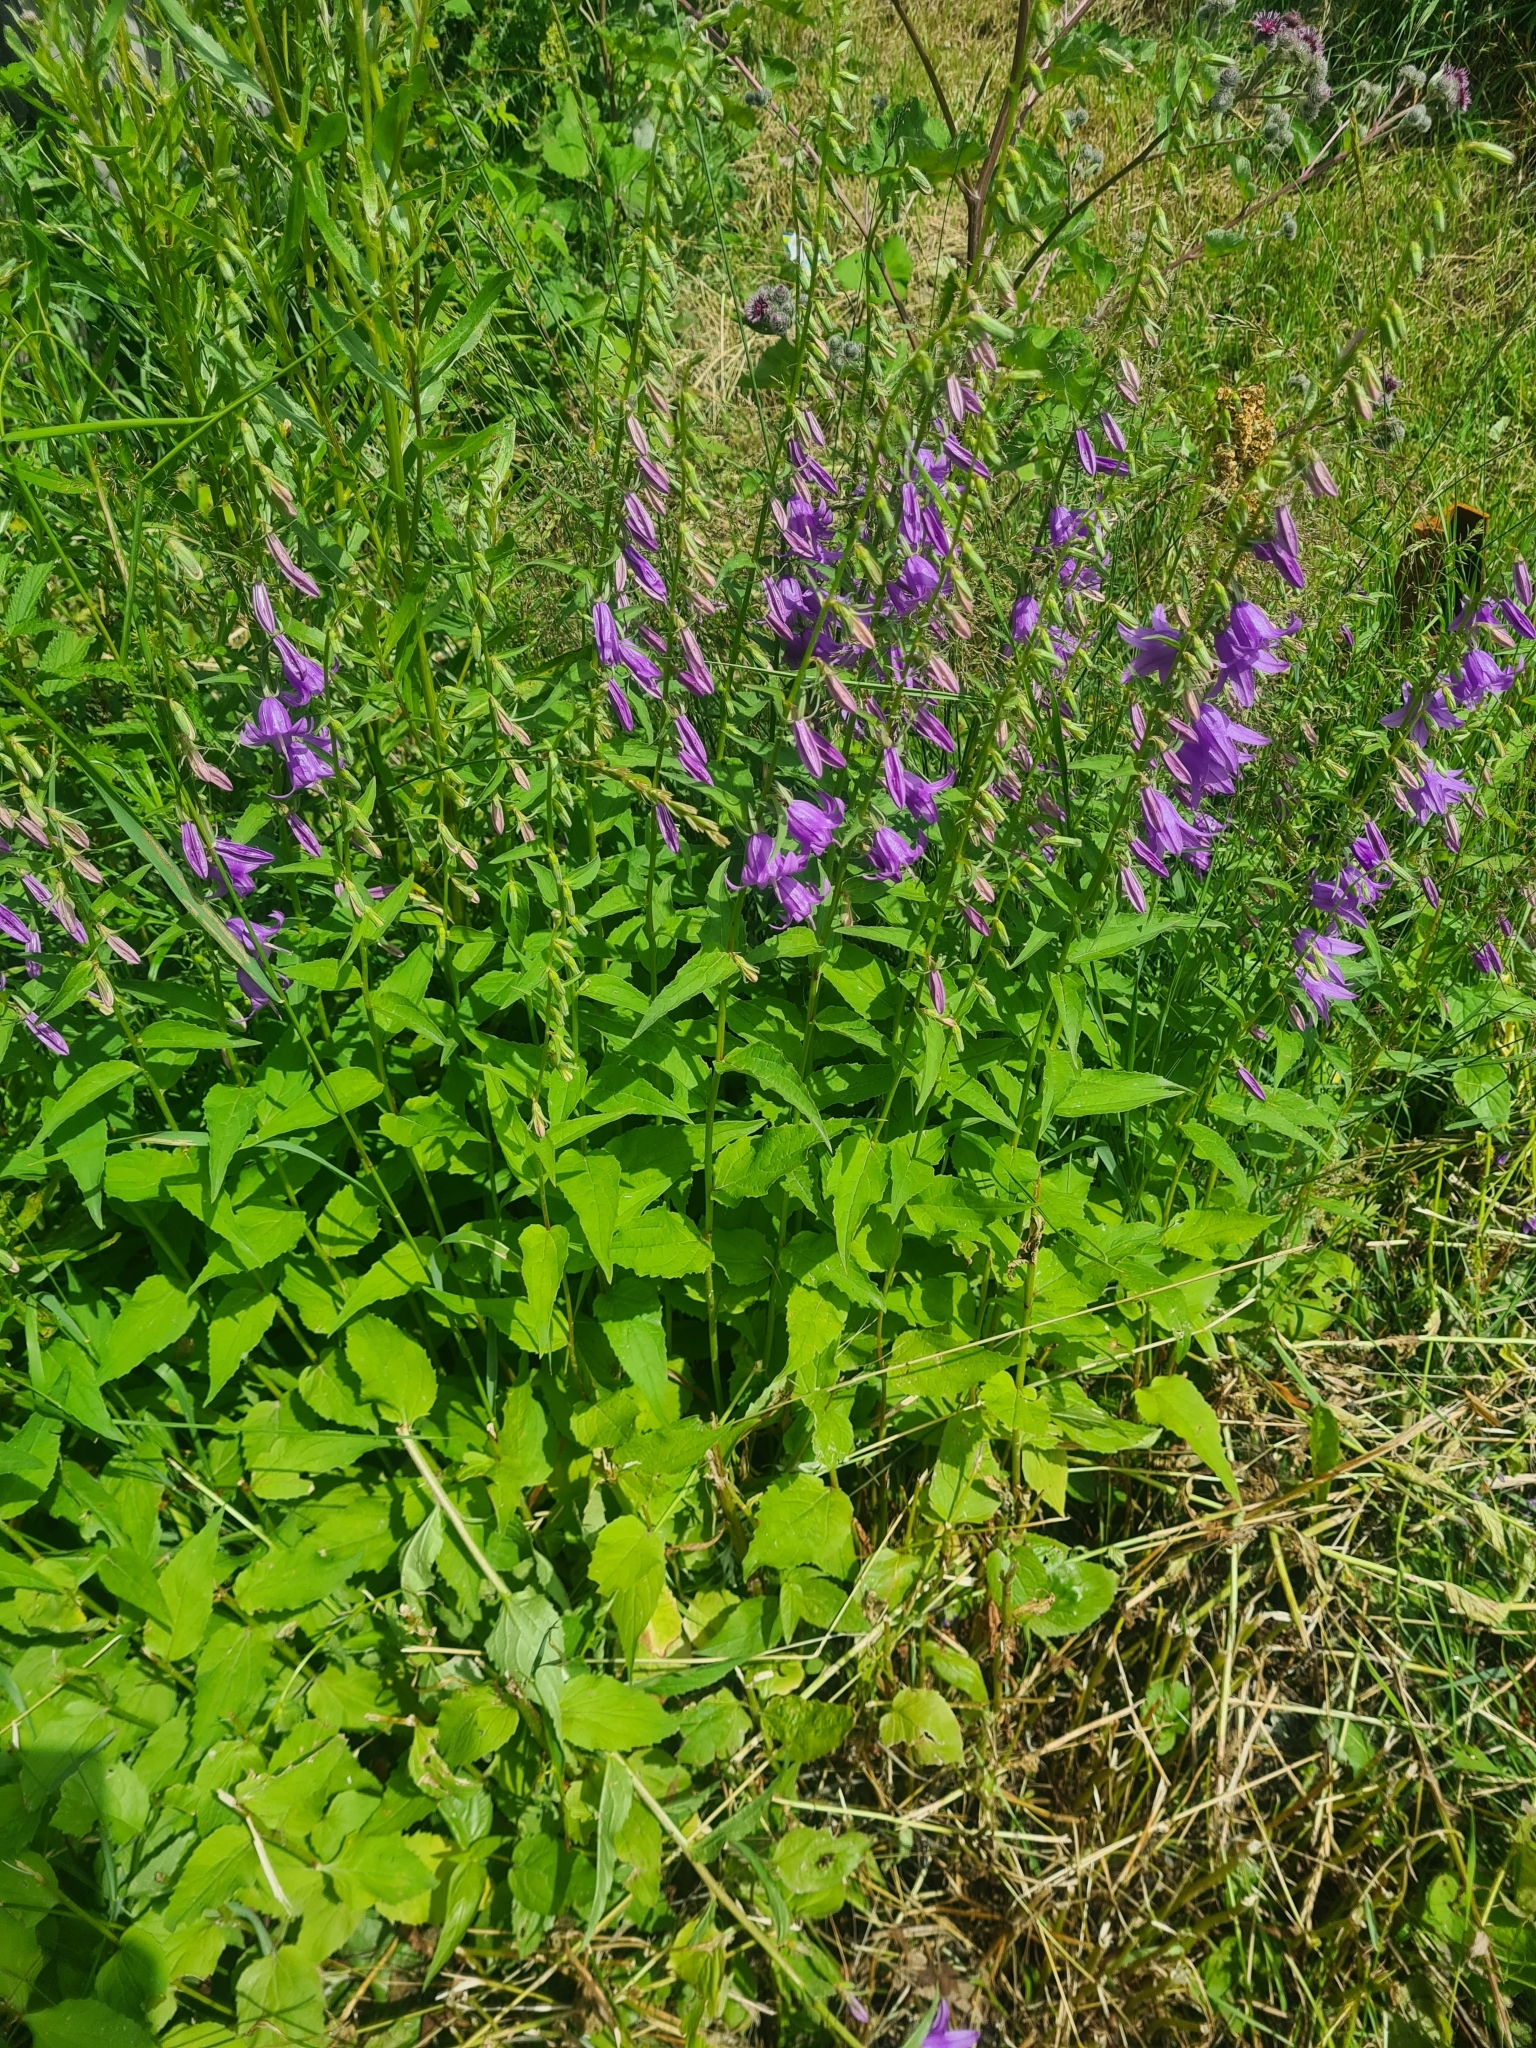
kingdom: Plantae
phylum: Tracheophyta
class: Magnoliopsida
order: Asterales
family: Campanulaceae
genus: Campanula
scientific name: Campanula rapunculoides
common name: Creeping bellflower
